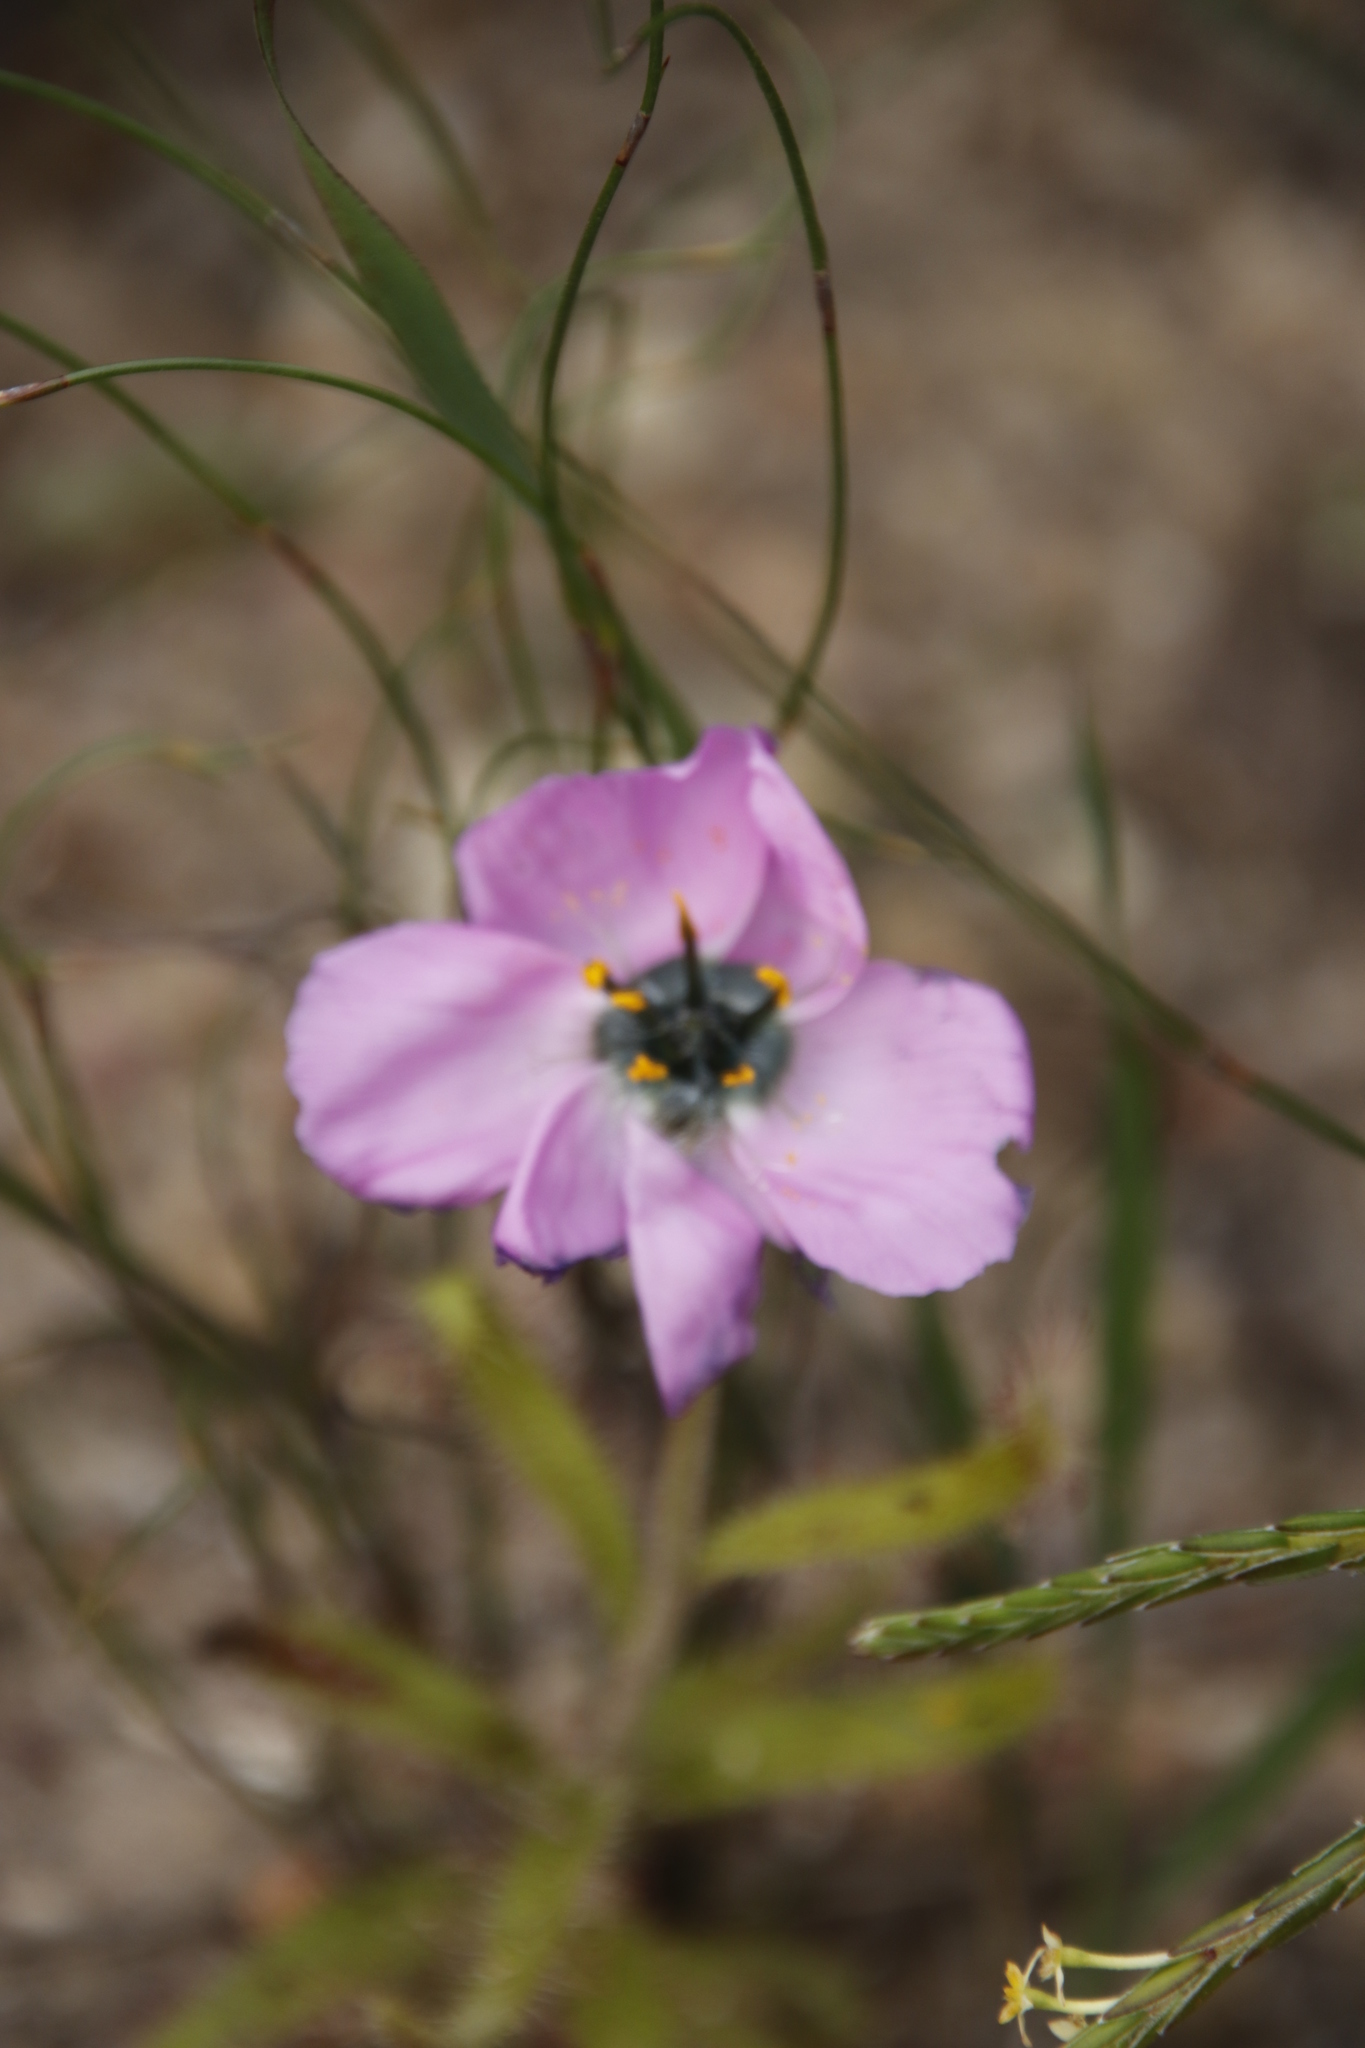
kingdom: Plantae
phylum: Tracheophyta
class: Magnoliopsida
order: Caryophyllales
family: Droseraceae
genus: Drosera
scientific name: Drosera cistiflora
